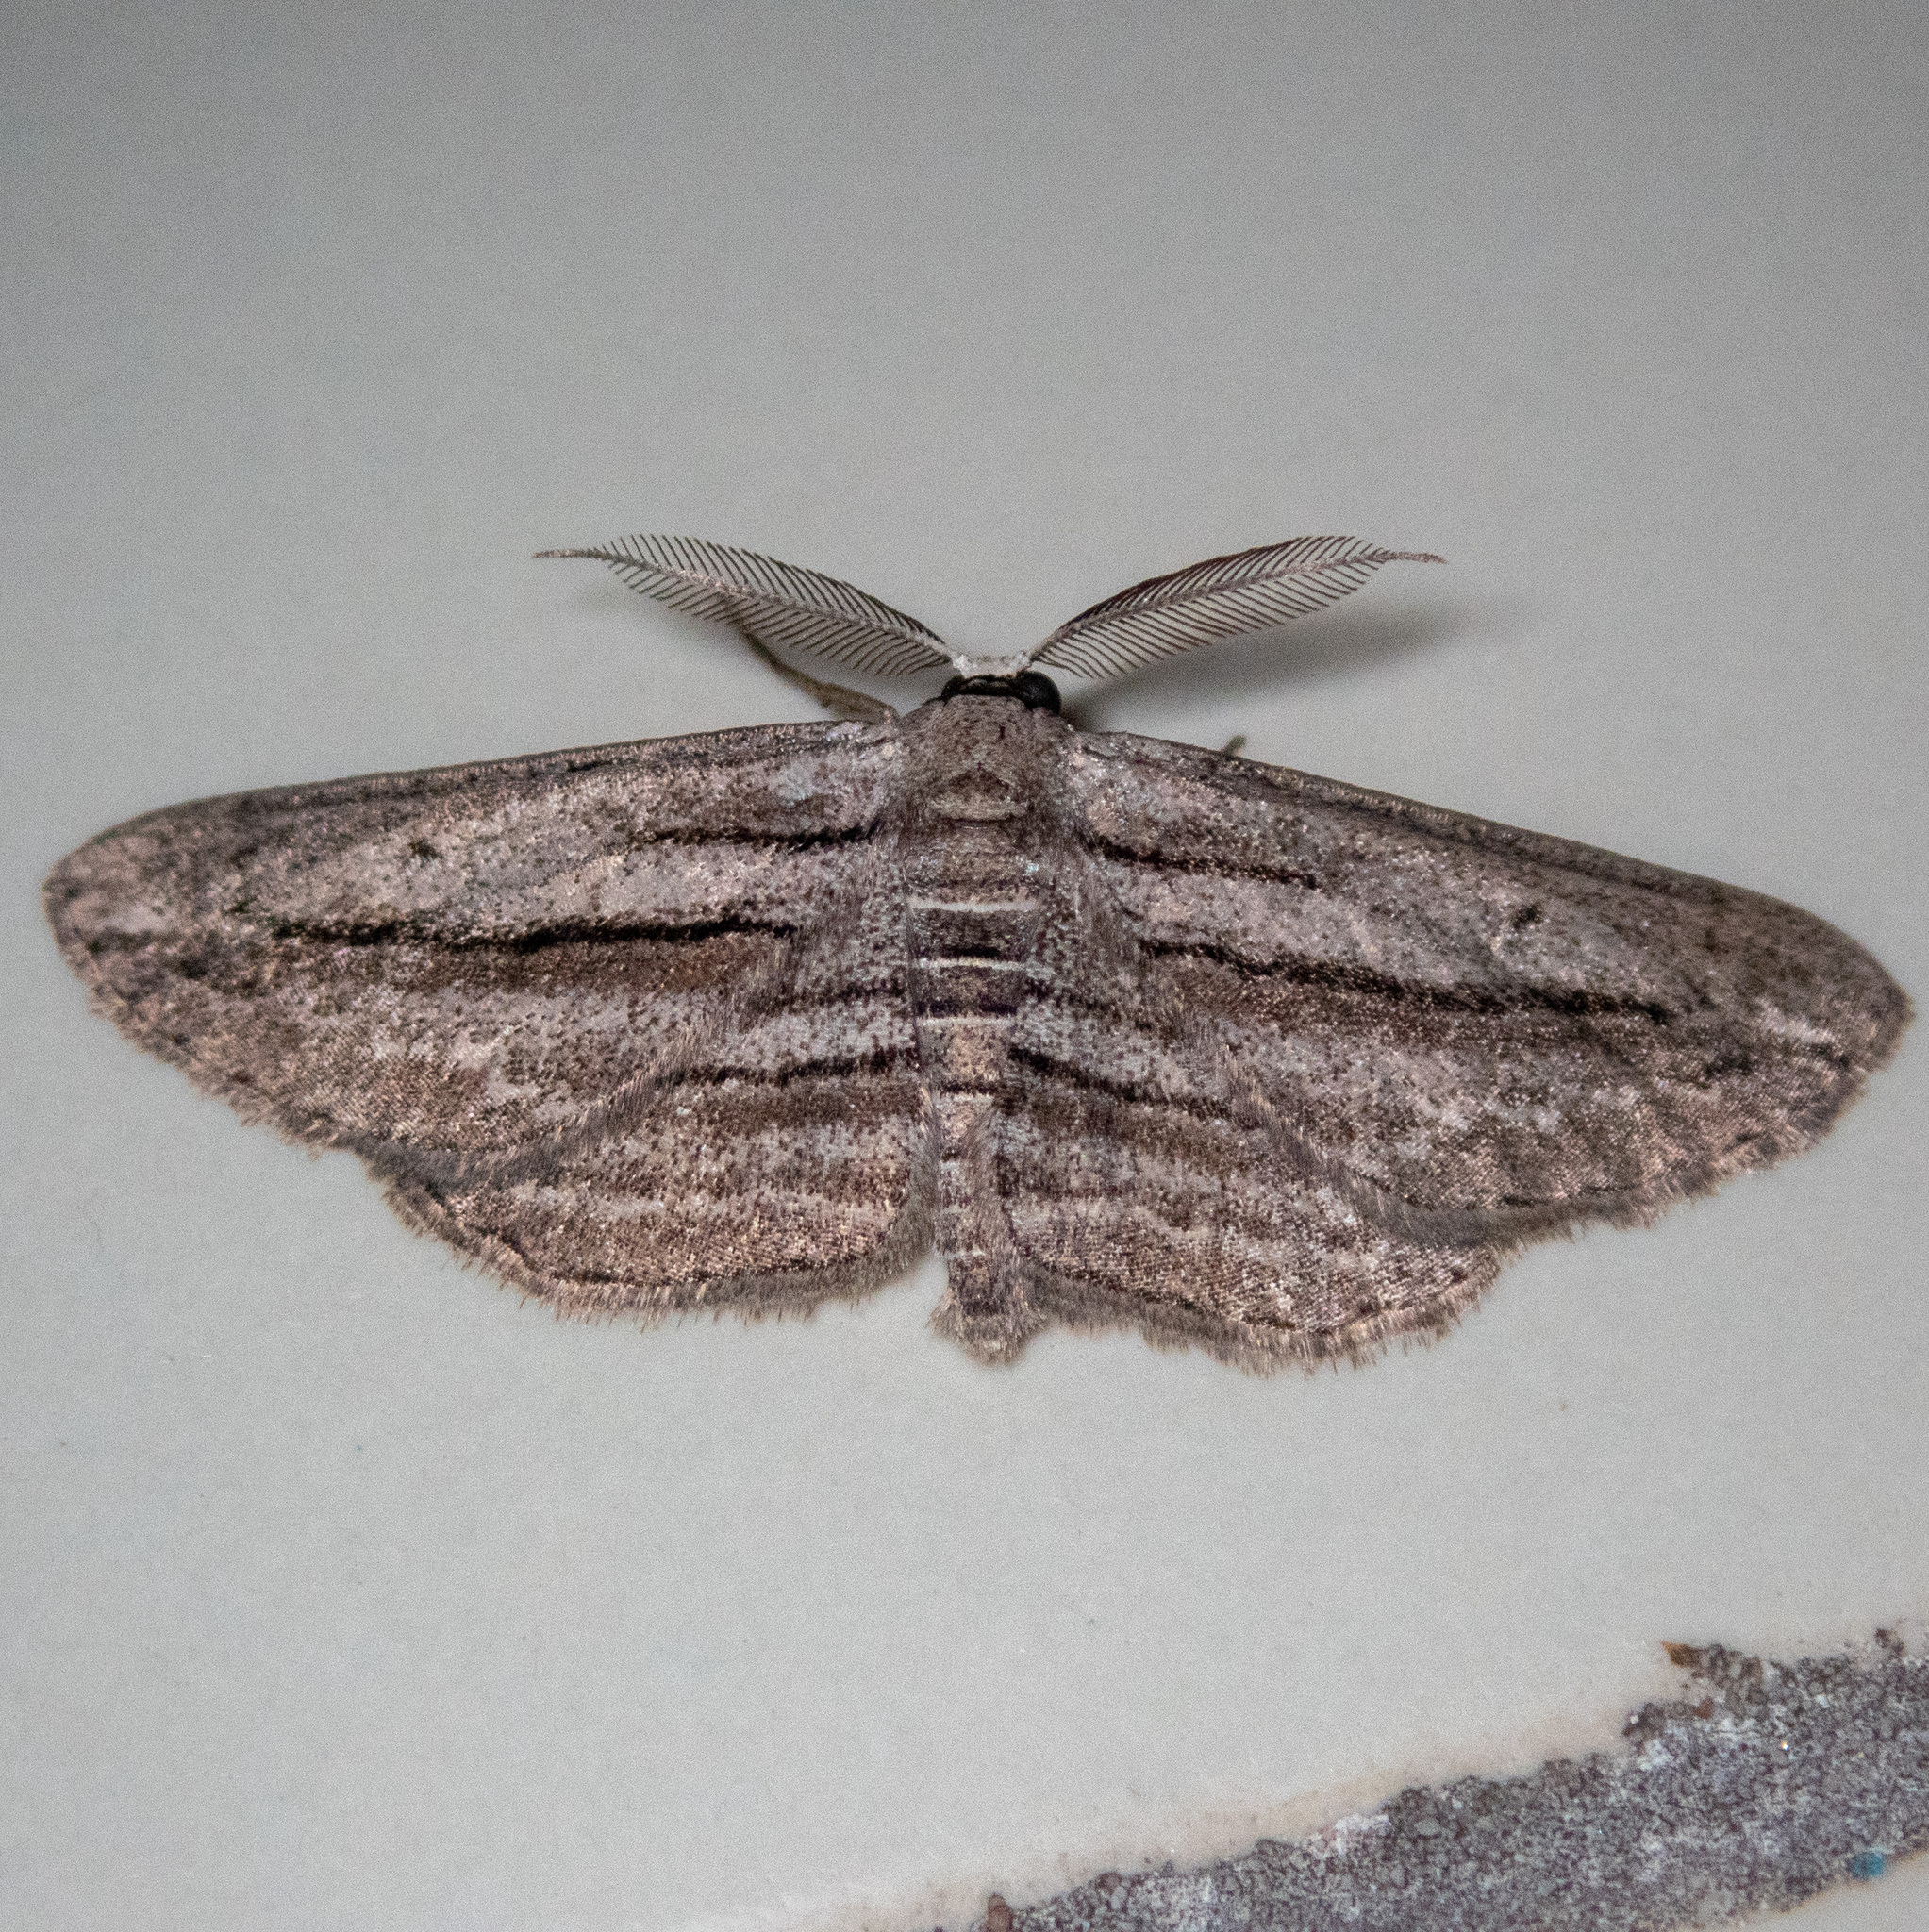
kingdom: Animalia
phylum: Arthropoda
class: Insecta
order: Lepidoptera
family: Geometridae
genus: Glena
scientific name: Glena quinquelinearia
